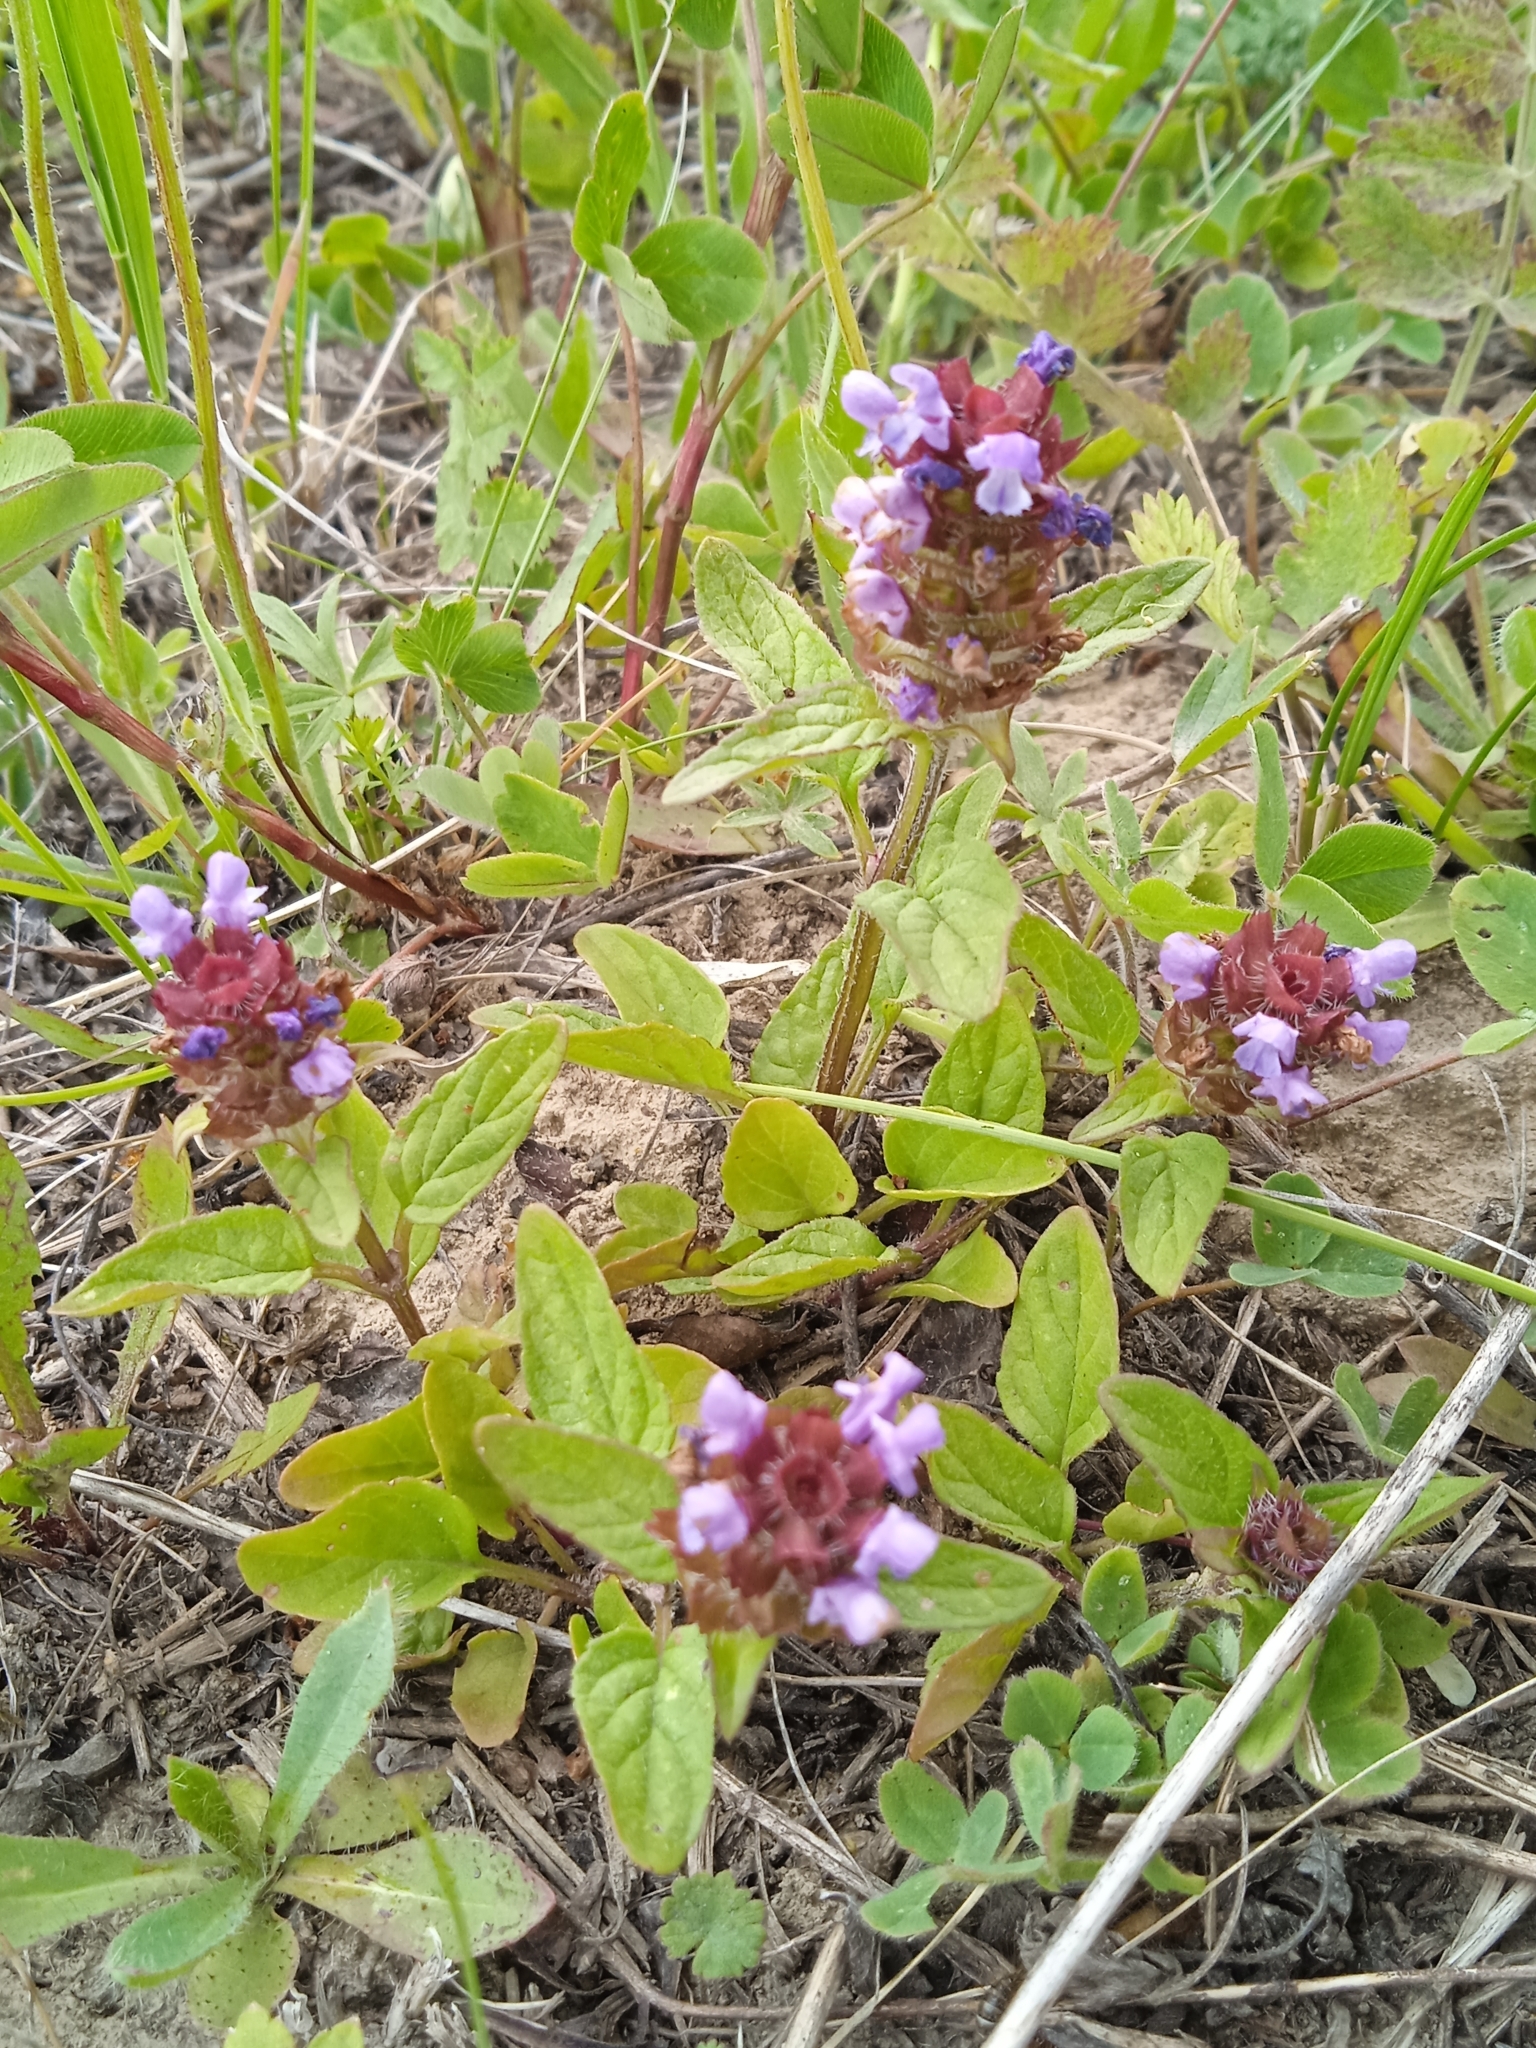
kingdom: Plantae
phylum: Tracheophyta
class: Magnoliopsida
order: Lamiales
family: Lamiaceae
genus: Prunella
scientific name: Prunella vulgaris
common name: Heal-all
